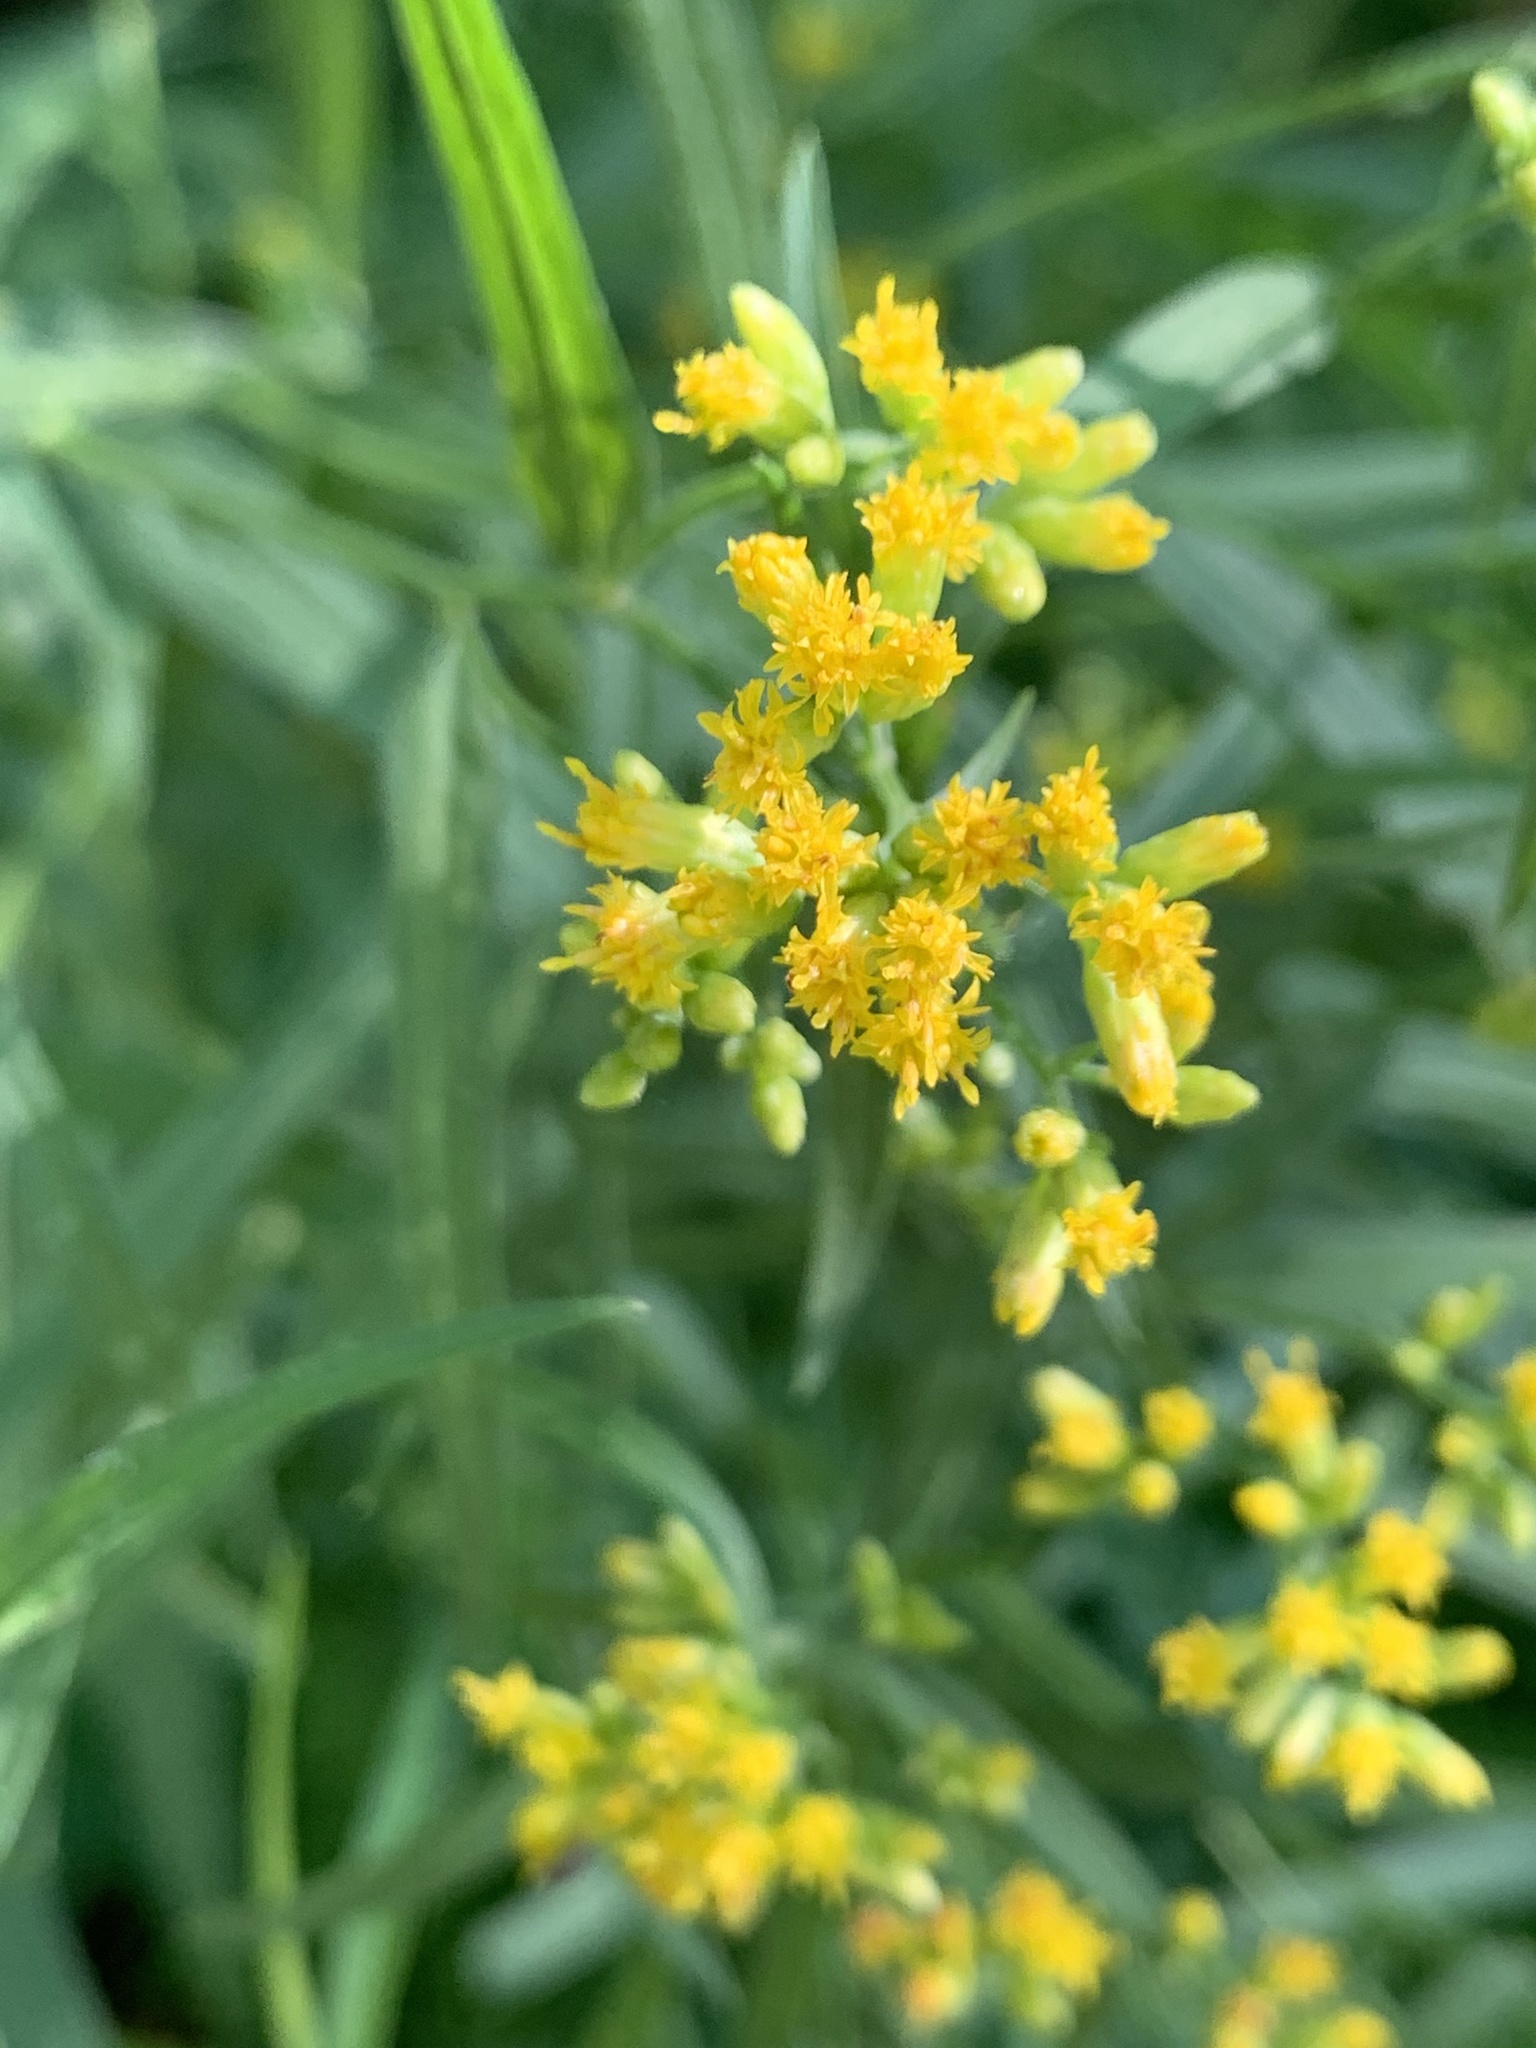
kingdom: Plantae
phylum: Tracheophyta
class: Magnoliopsida
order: Asterales
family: Asteraceae
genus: Euthamia
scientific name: Euthamia graminifolia
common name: Common goldentop
